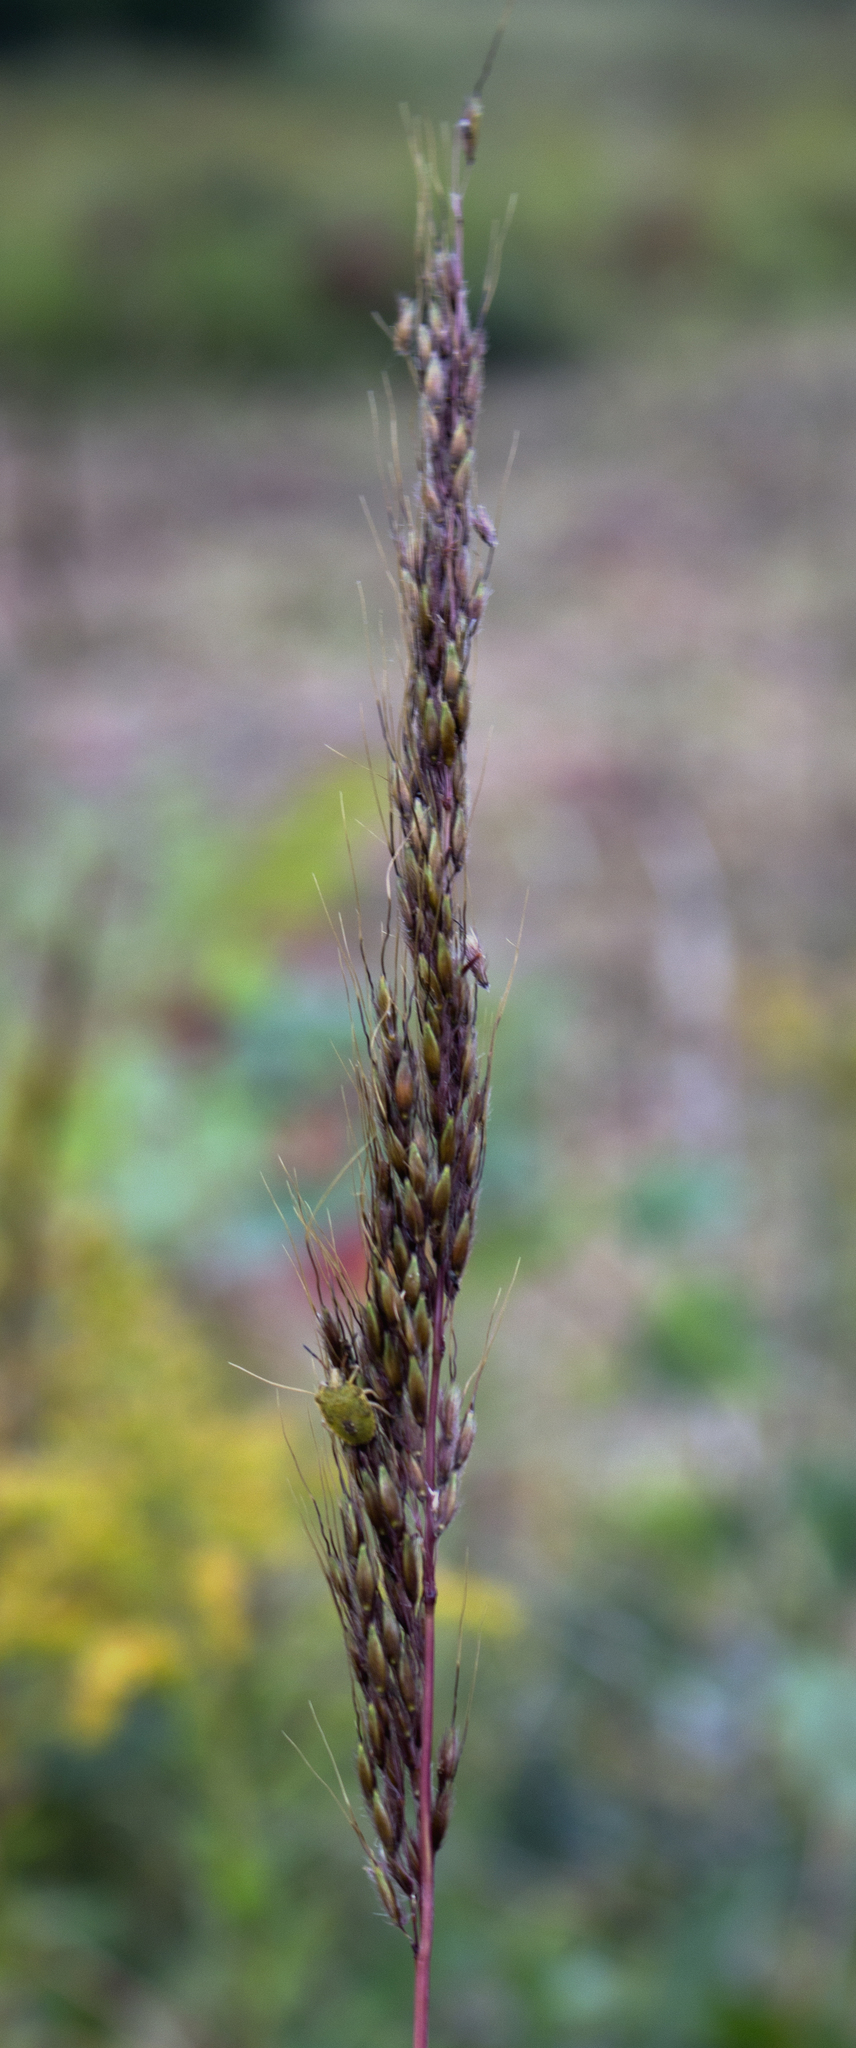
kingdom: Plantae
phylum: Tracheophyta
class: Liliopsida
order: Poales
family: Poaceae
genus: Sorghastrum
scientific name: Sorghastrum nutans
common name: Indian grass
